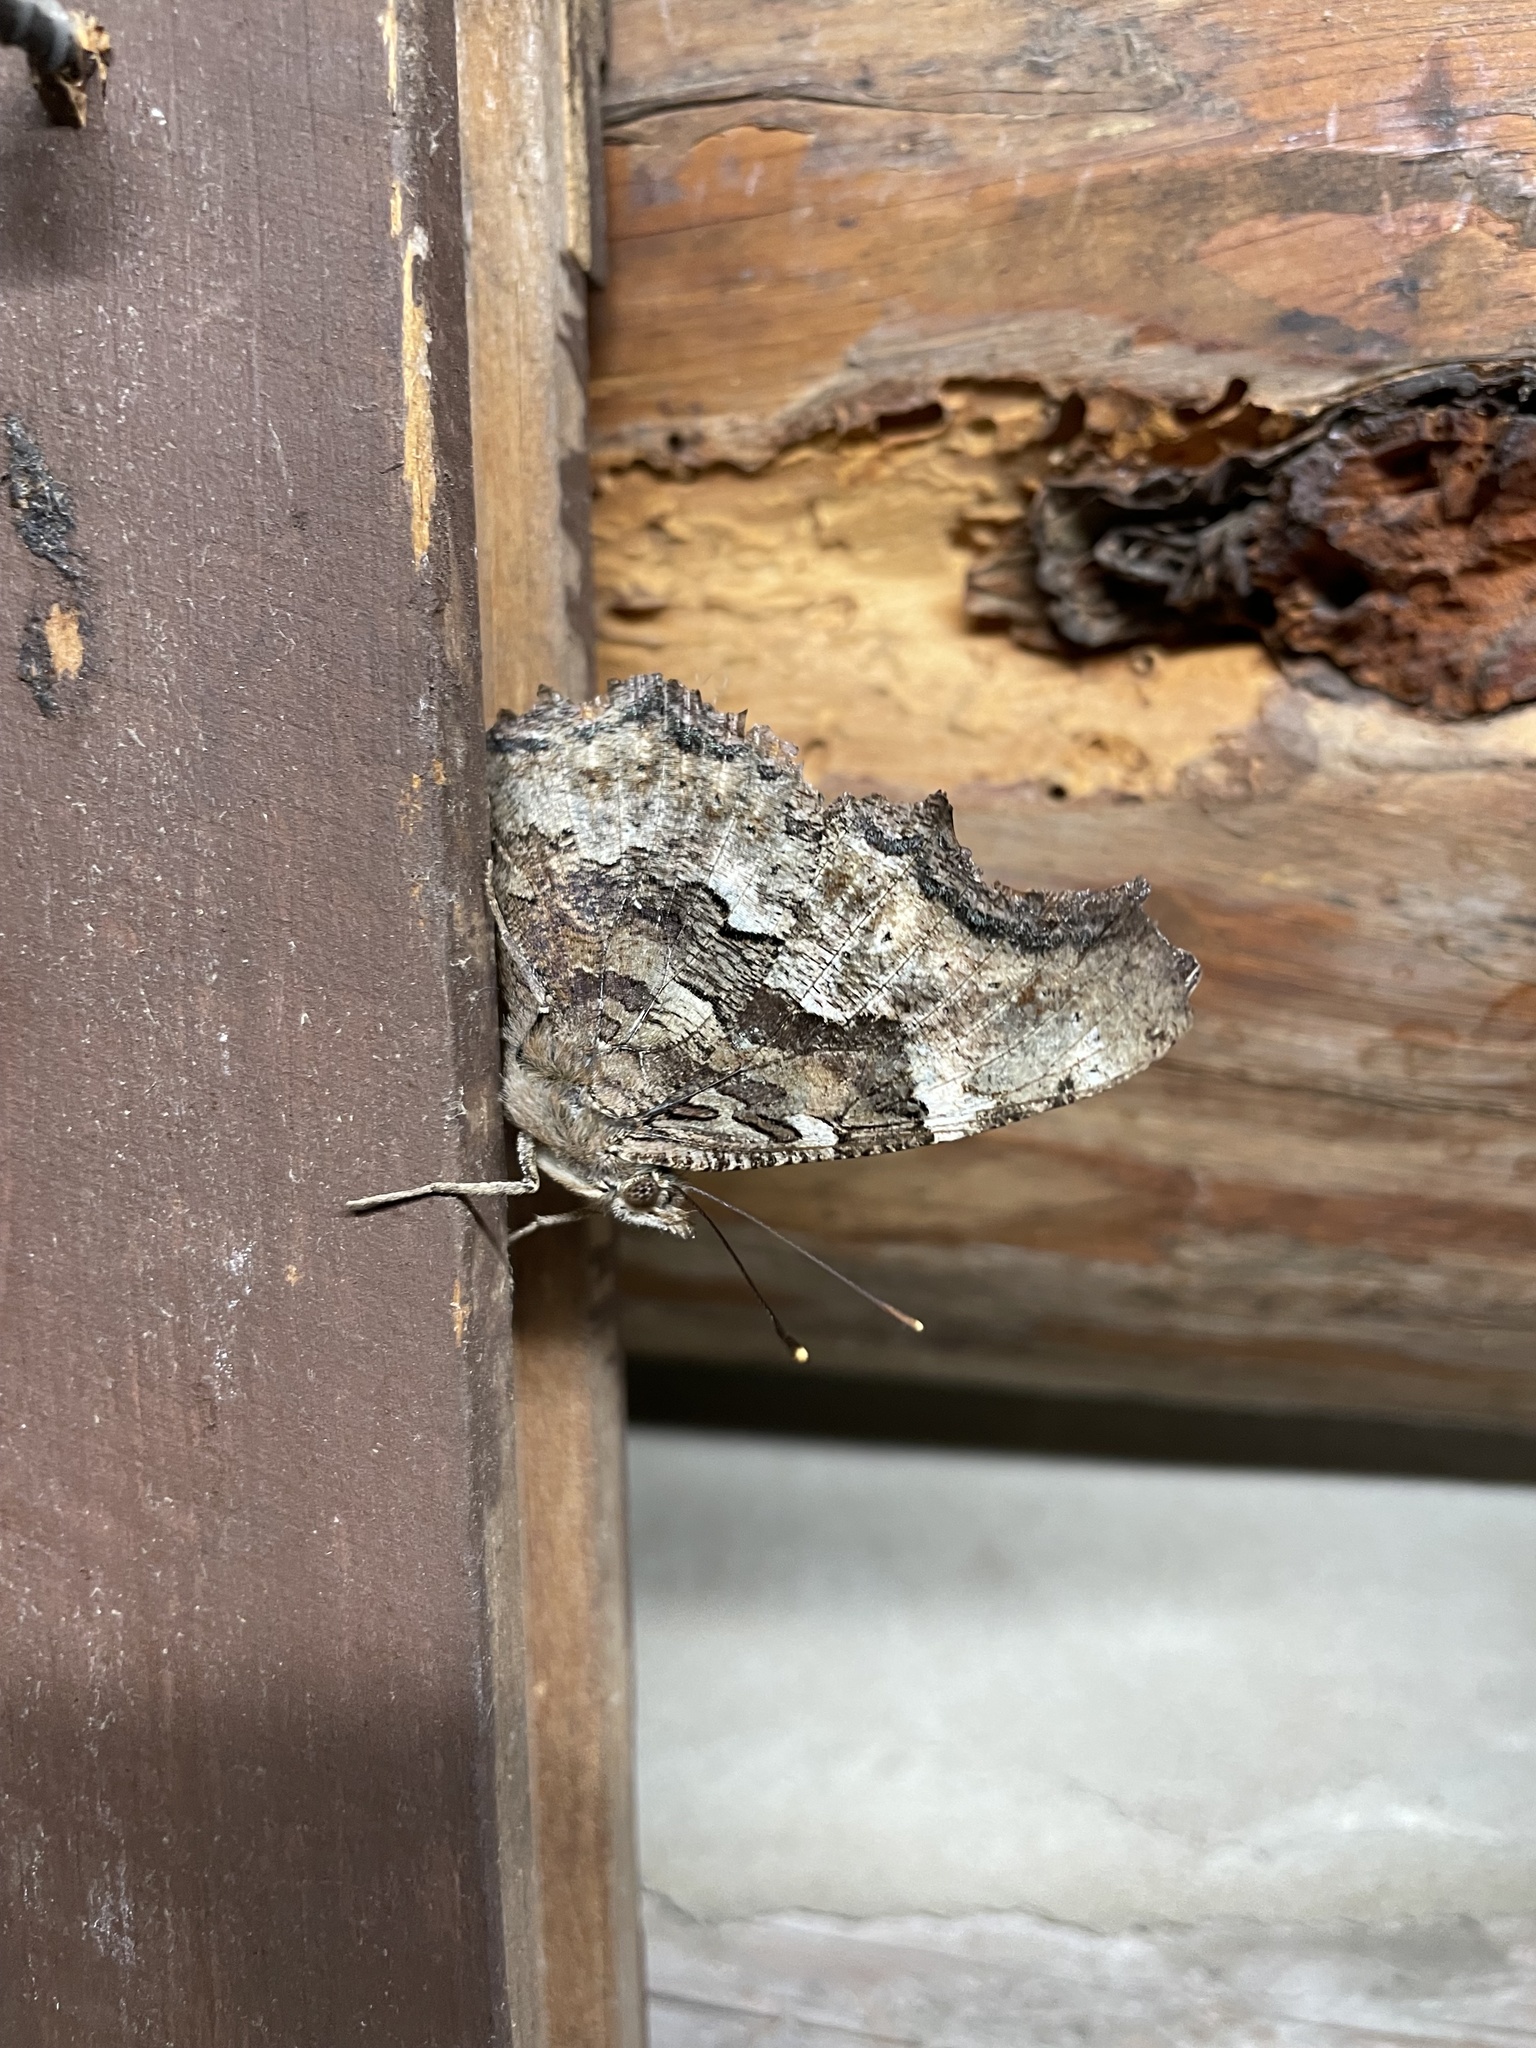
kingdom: Animalia
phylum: Arthropoda
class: Insecta
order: Lepidoptera
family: Nymphalidae
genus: Polygonia
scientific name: Polygonia vaualbum
